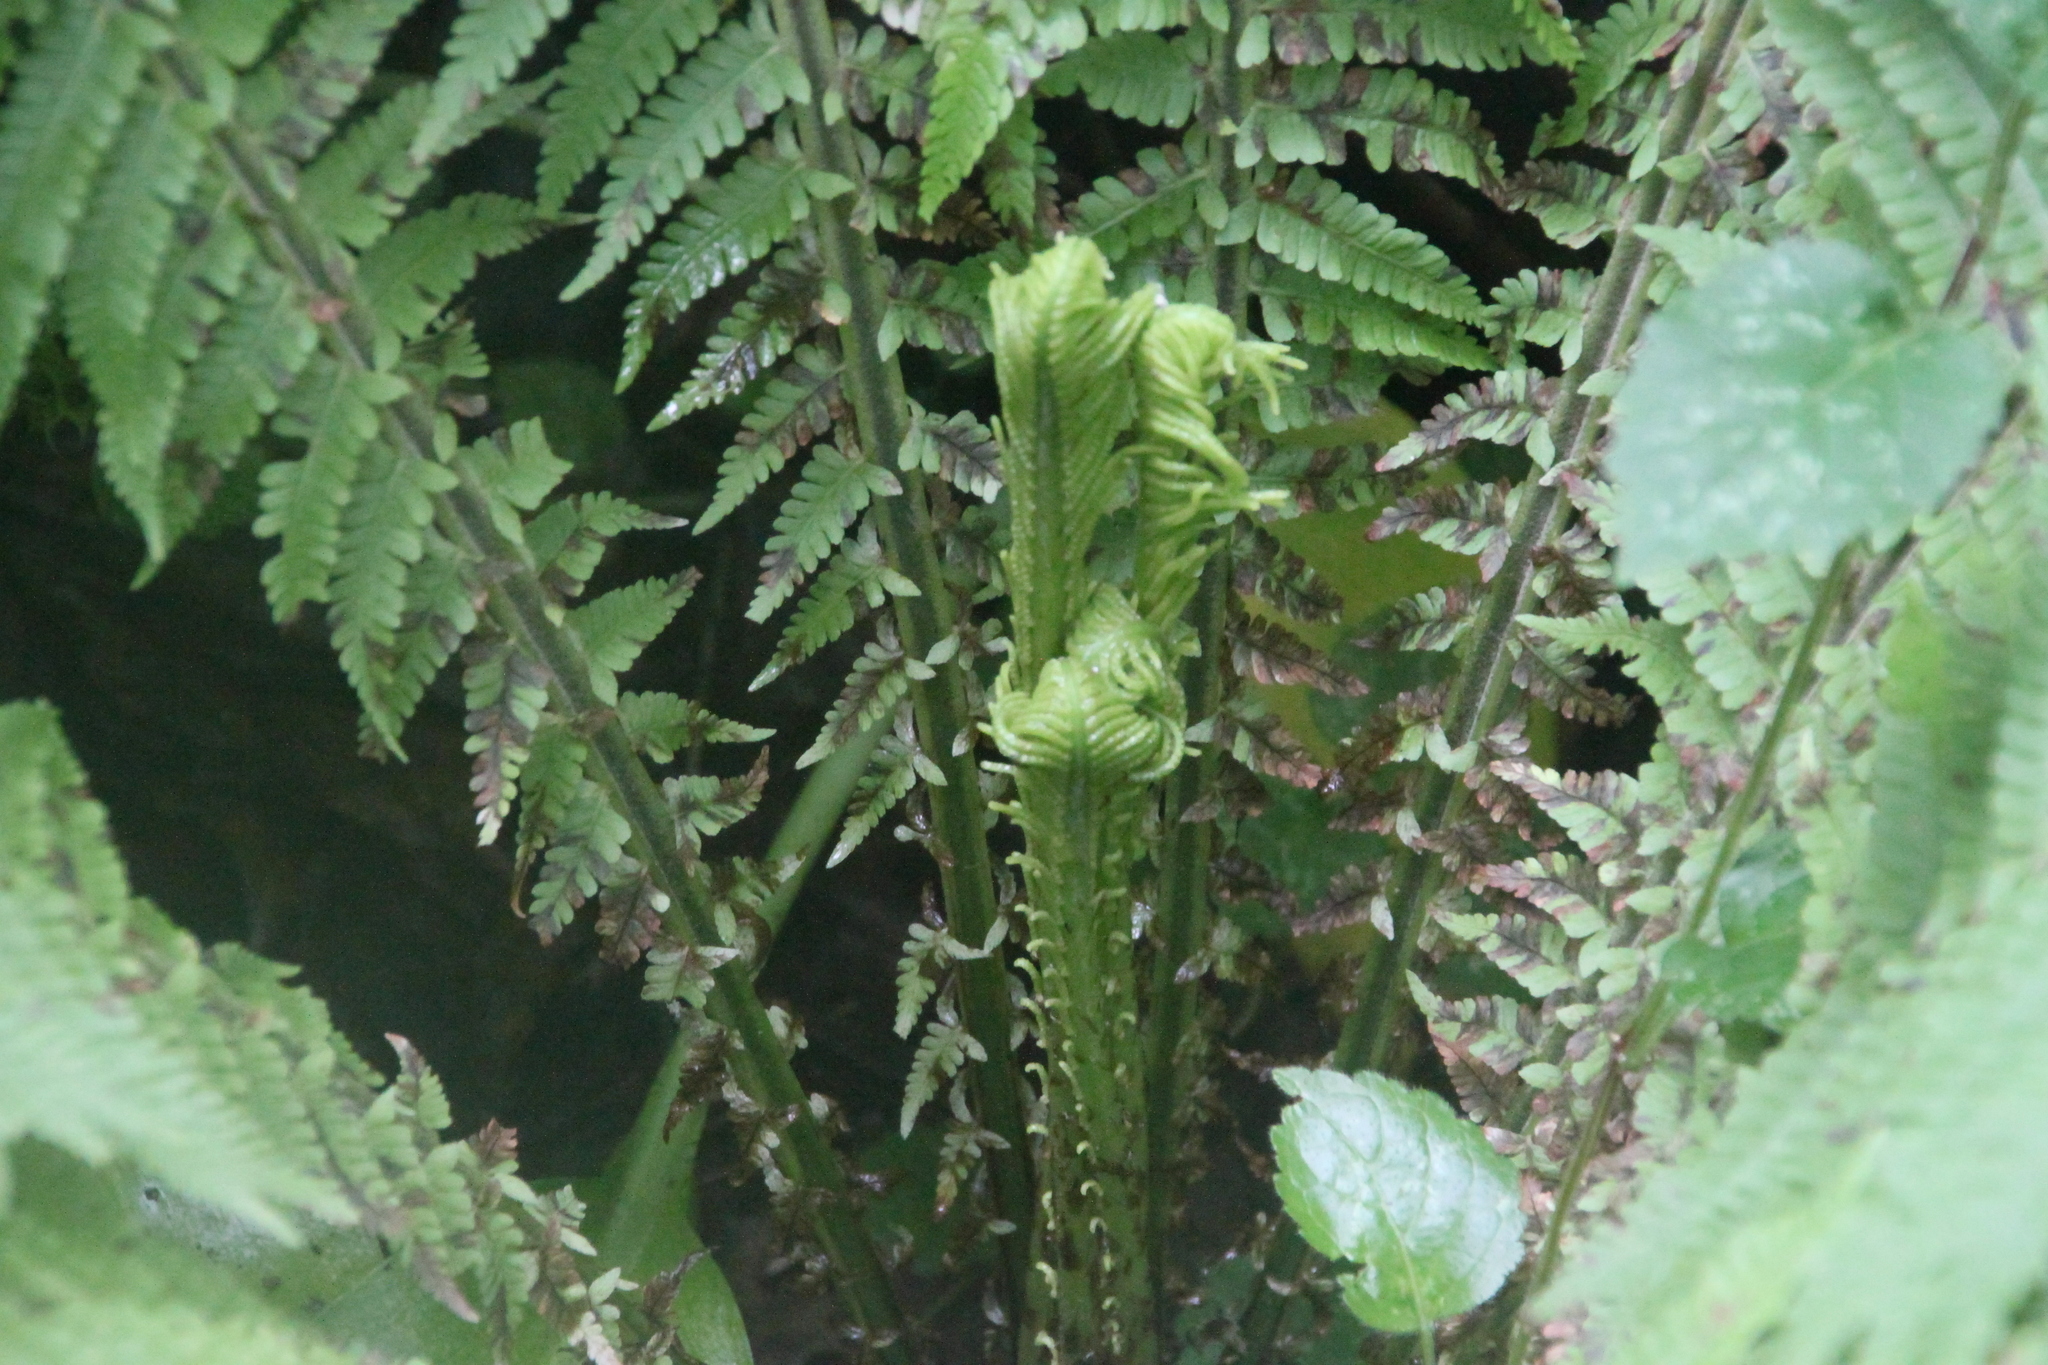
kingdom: Plantae
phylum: Tracheophyta
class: Polypodiopsida
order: Polypodiales
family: Onocleaceae
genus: Matteuccia
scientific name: Matteuccia struthiopteris
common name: Ostrich fern
